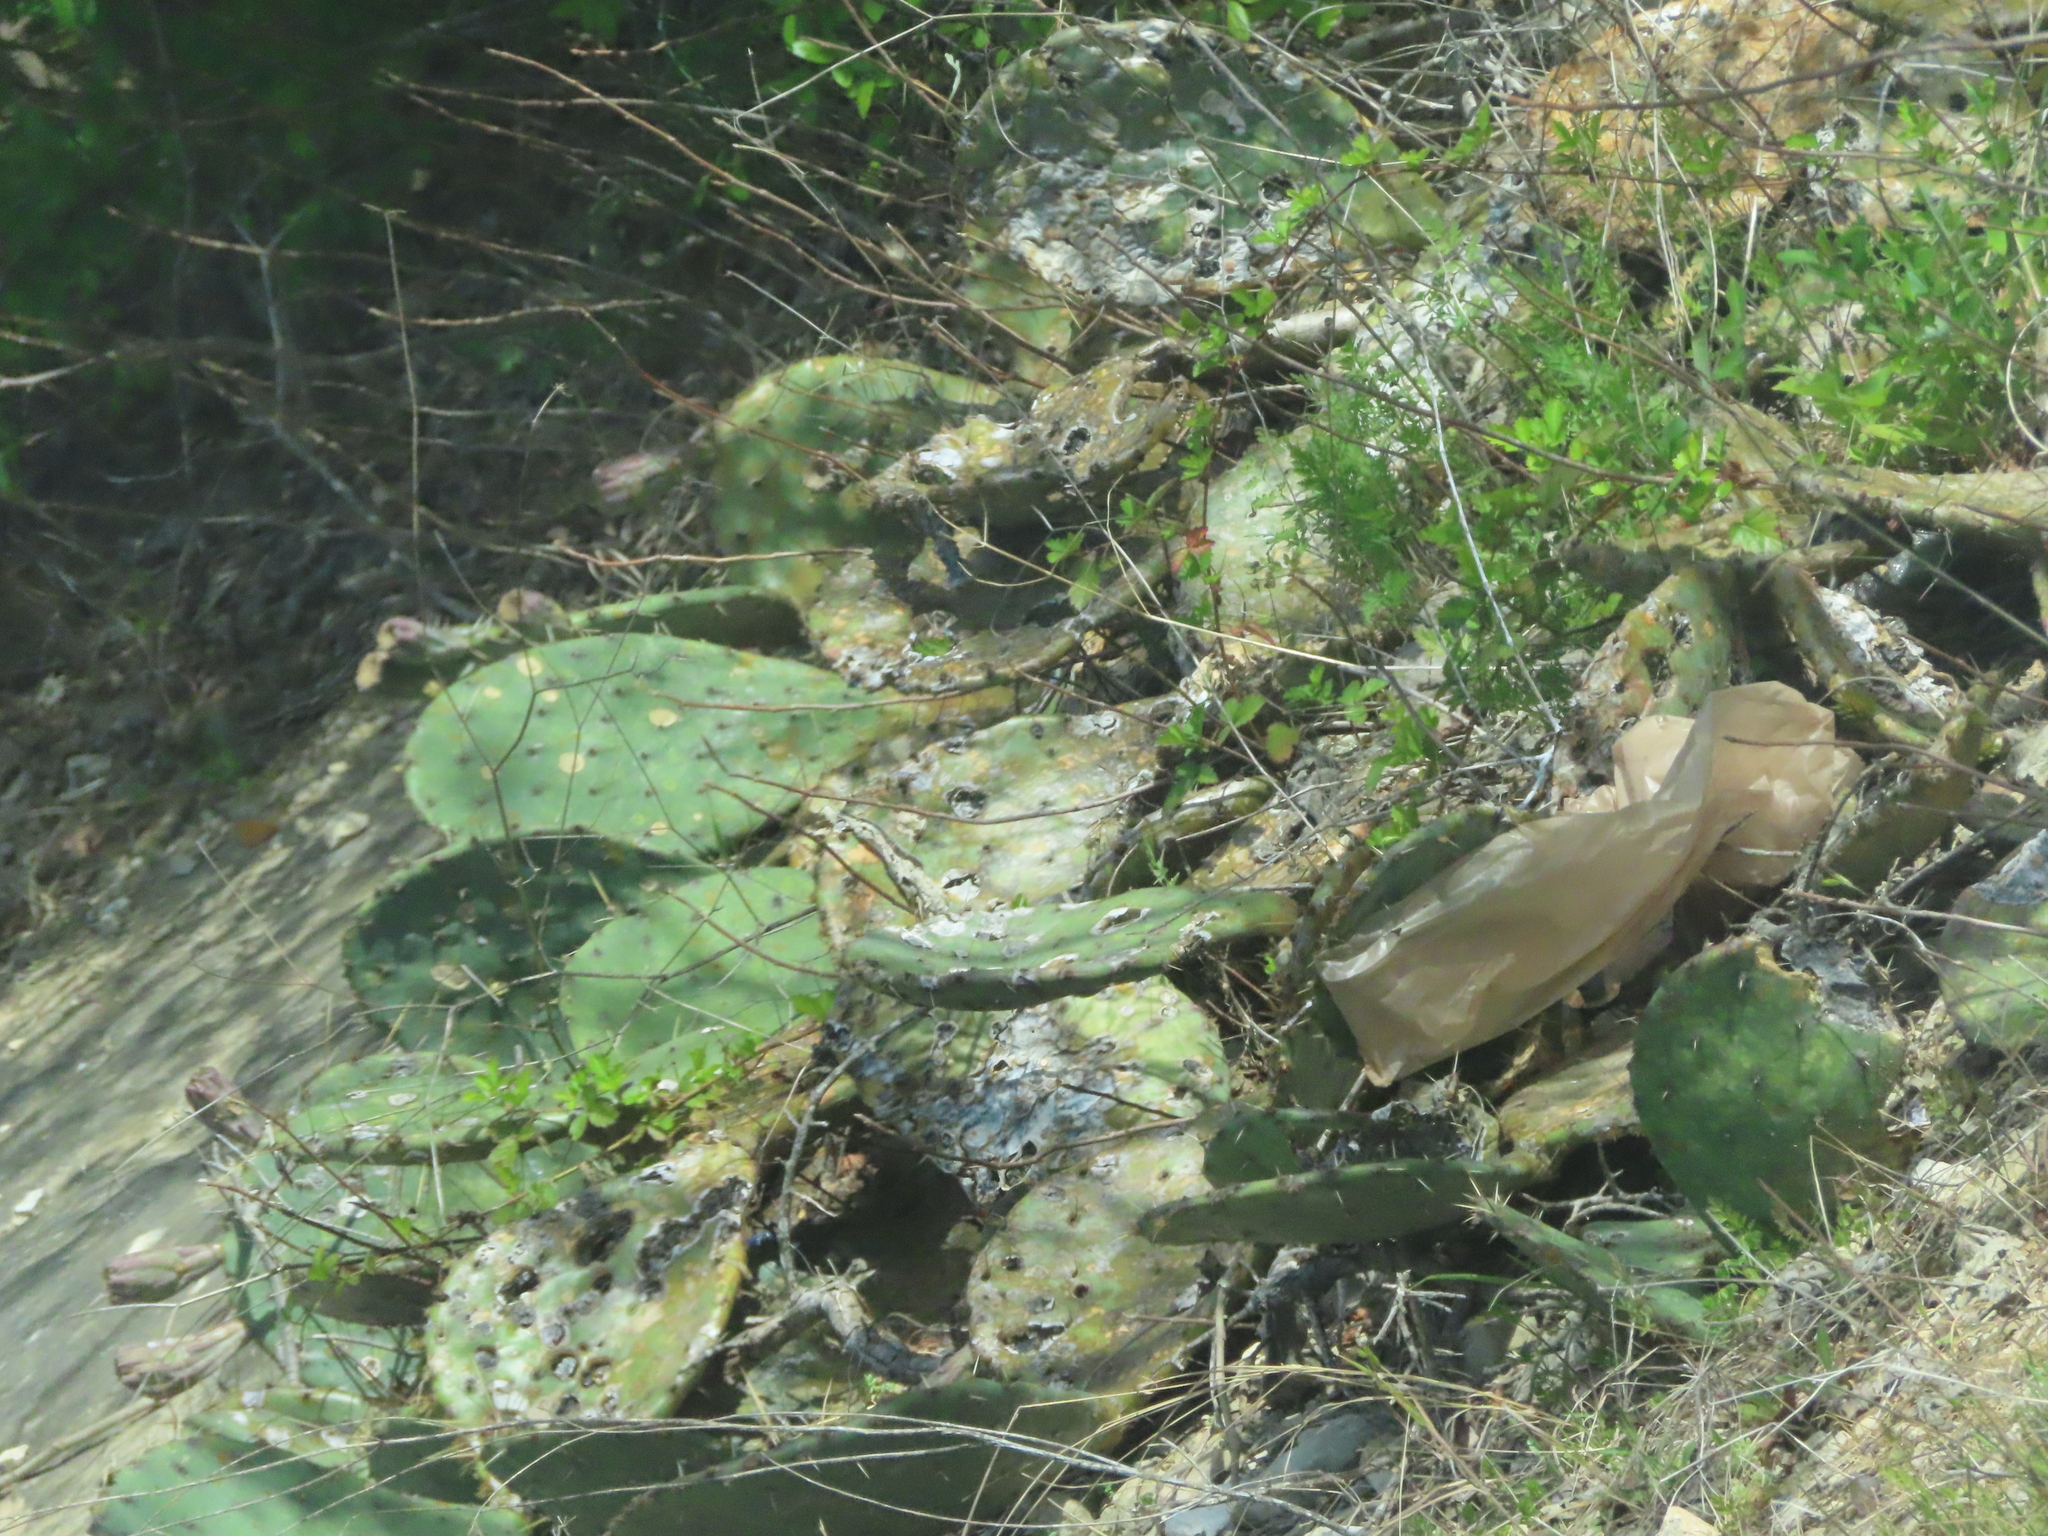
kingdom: Plantae
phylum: Tracheophyta
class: Magnoliopsida
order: Caryophyllales
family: Cactaceae
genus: Opuntia
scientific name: Opuntia
